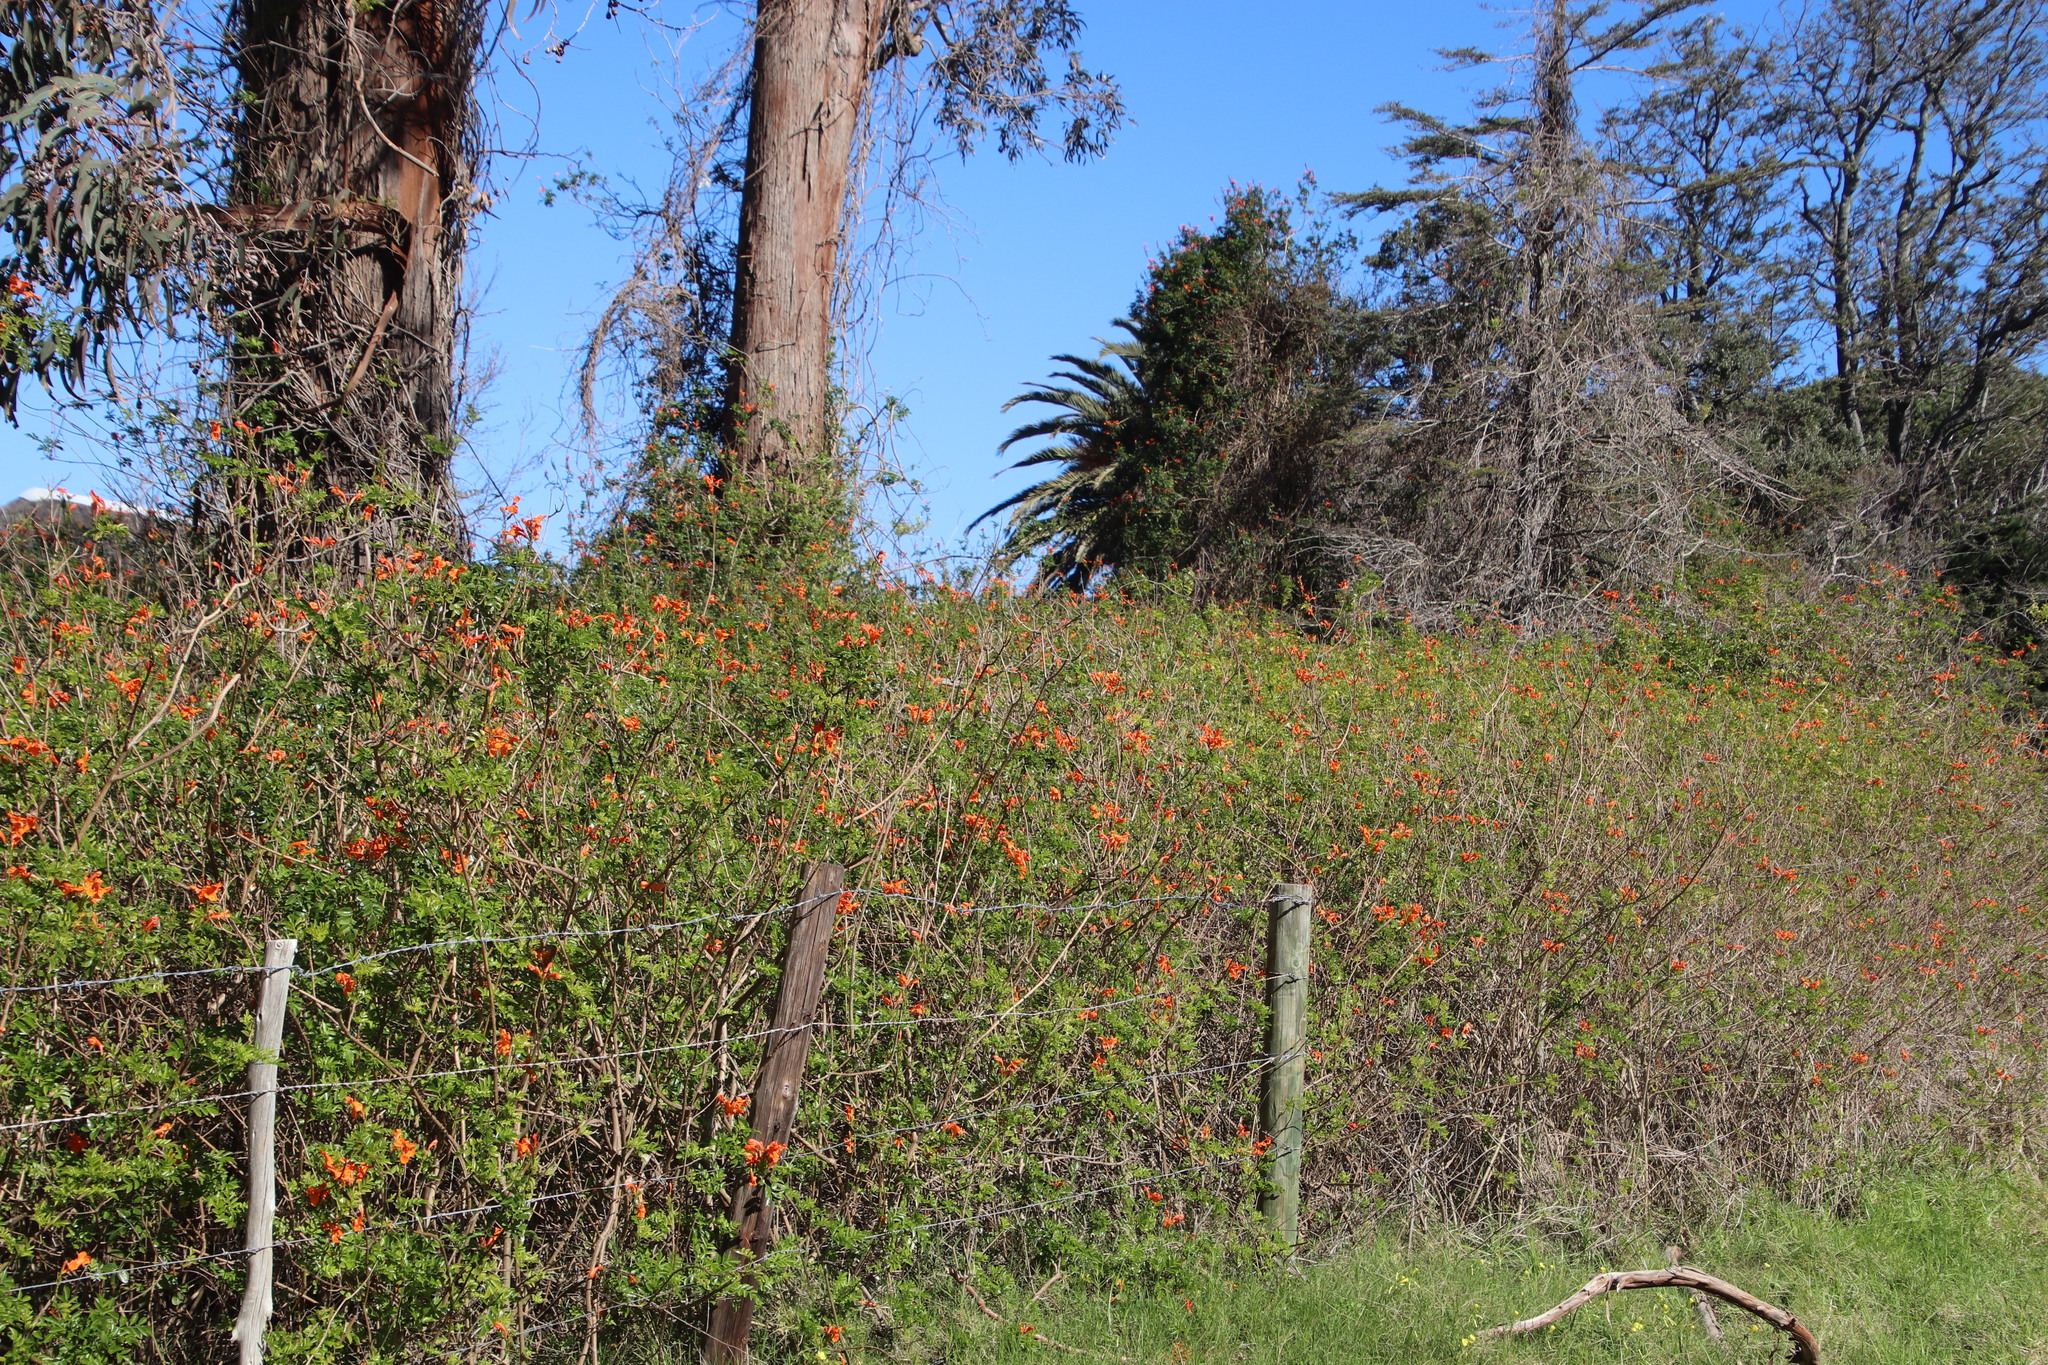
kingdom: Plantae
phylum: Tracheophyta
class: Magnoliopsida
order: Lamiales
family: Bignoniaceae
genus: Tecomaria
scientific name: Tecomaria capensis
